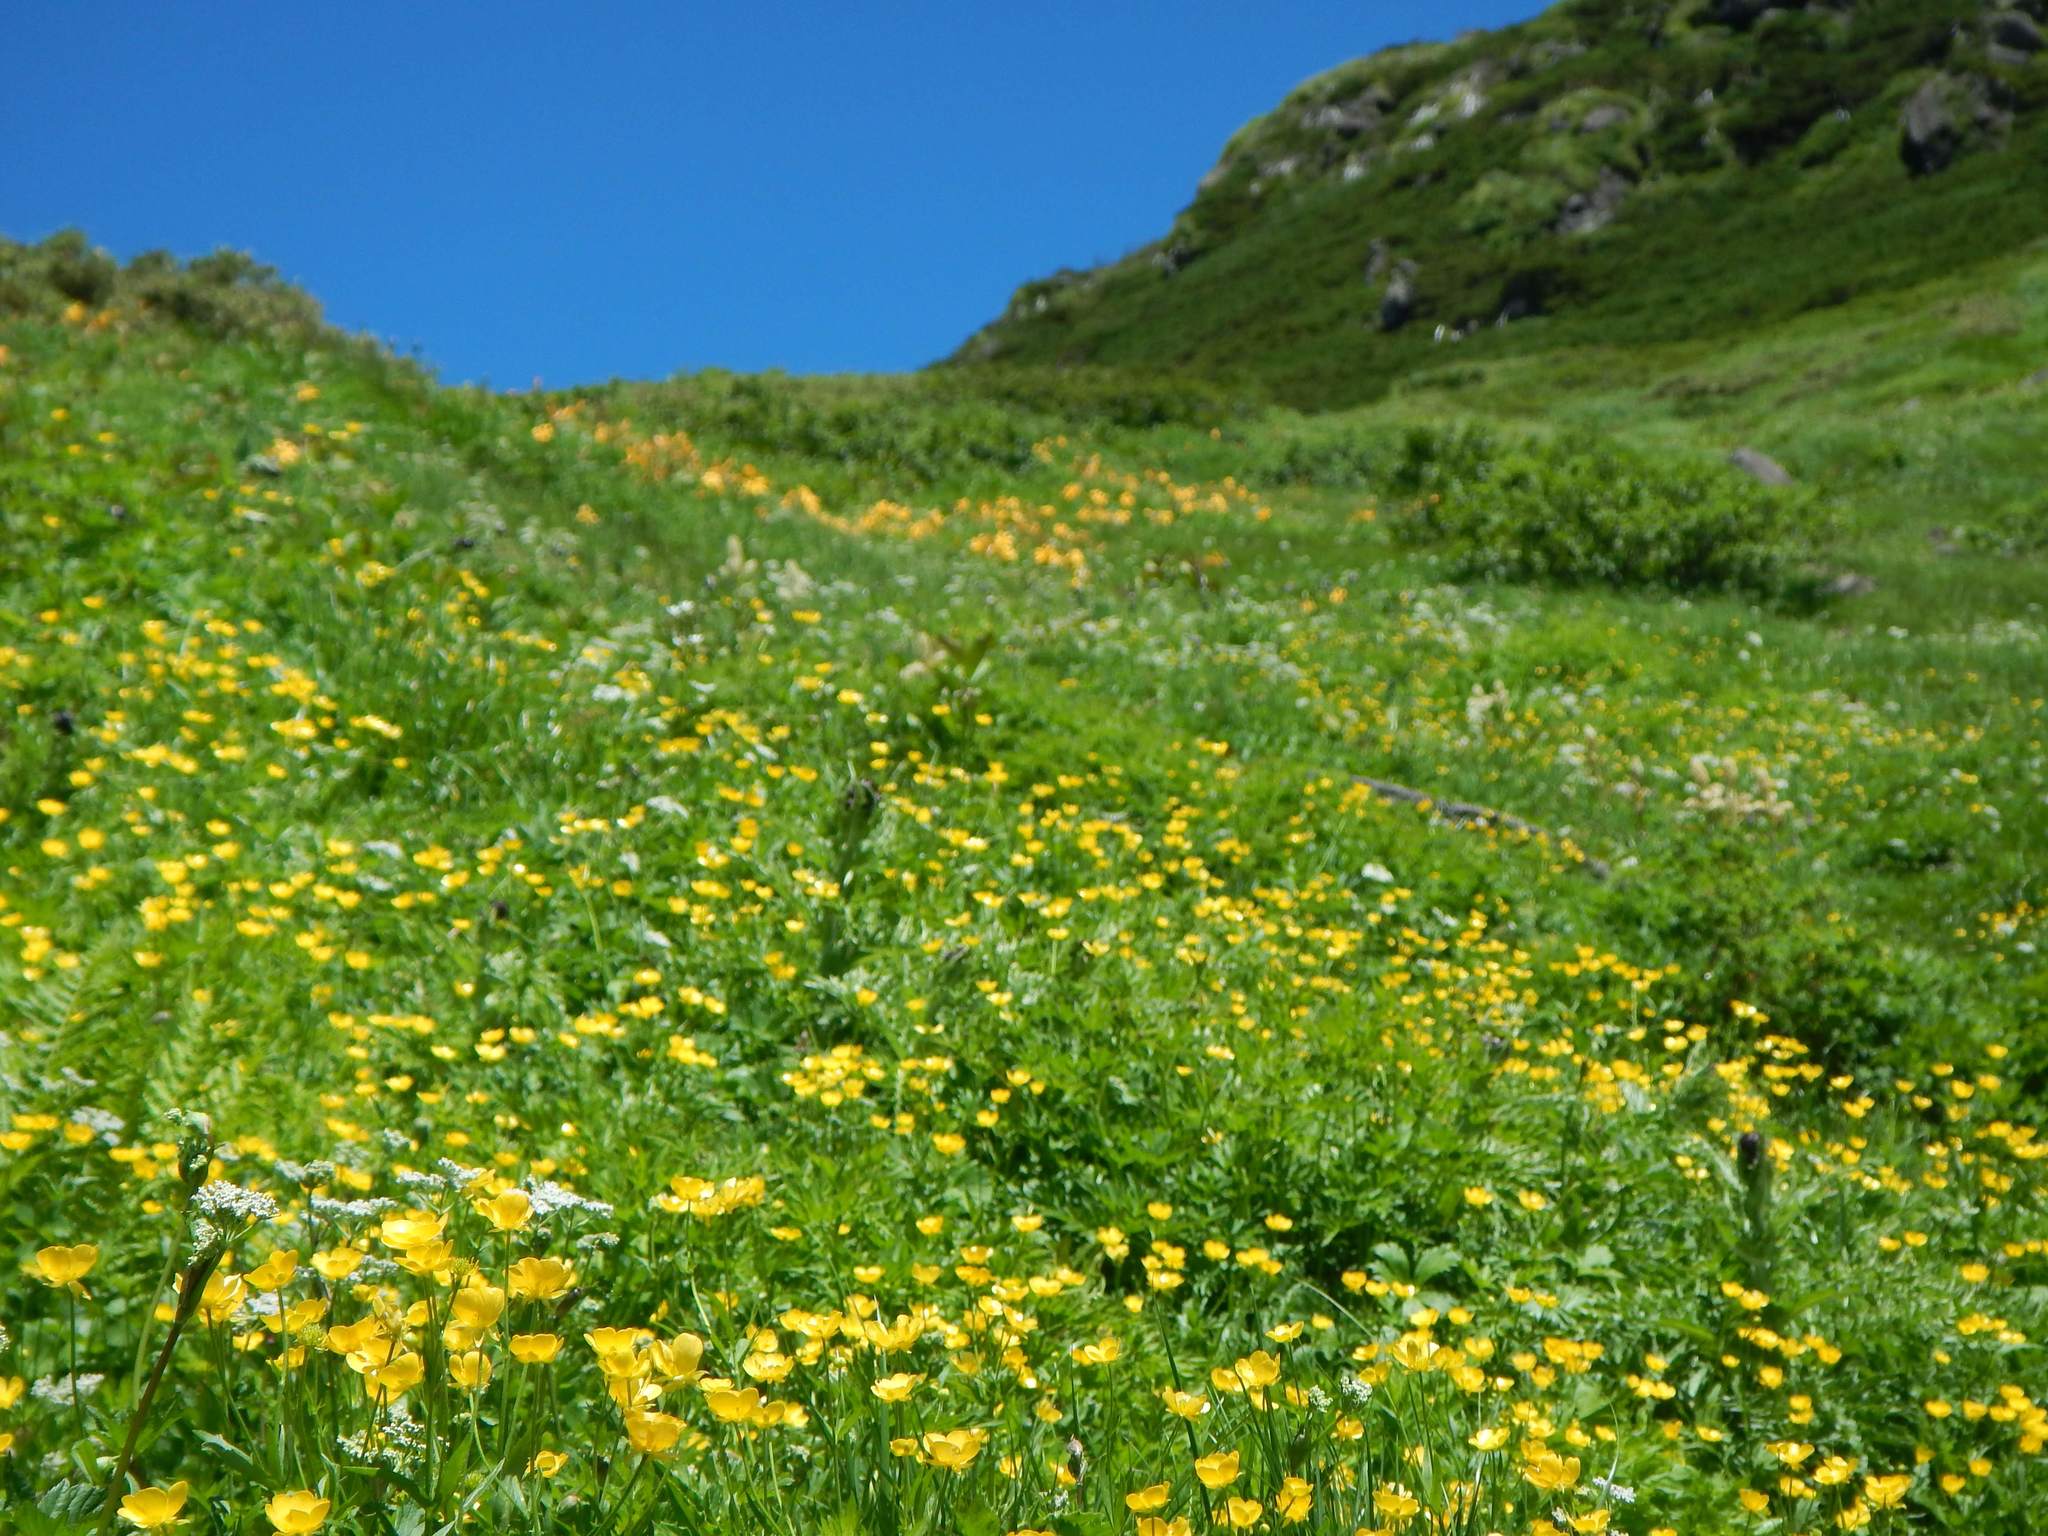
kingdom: Plantae
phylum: Tracheophyta
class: Magnoliopsida
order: Ranunculales
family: Ranunculaceae
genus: Ranunculus
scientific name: Ranunculus acris
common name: Meadow buttercup
